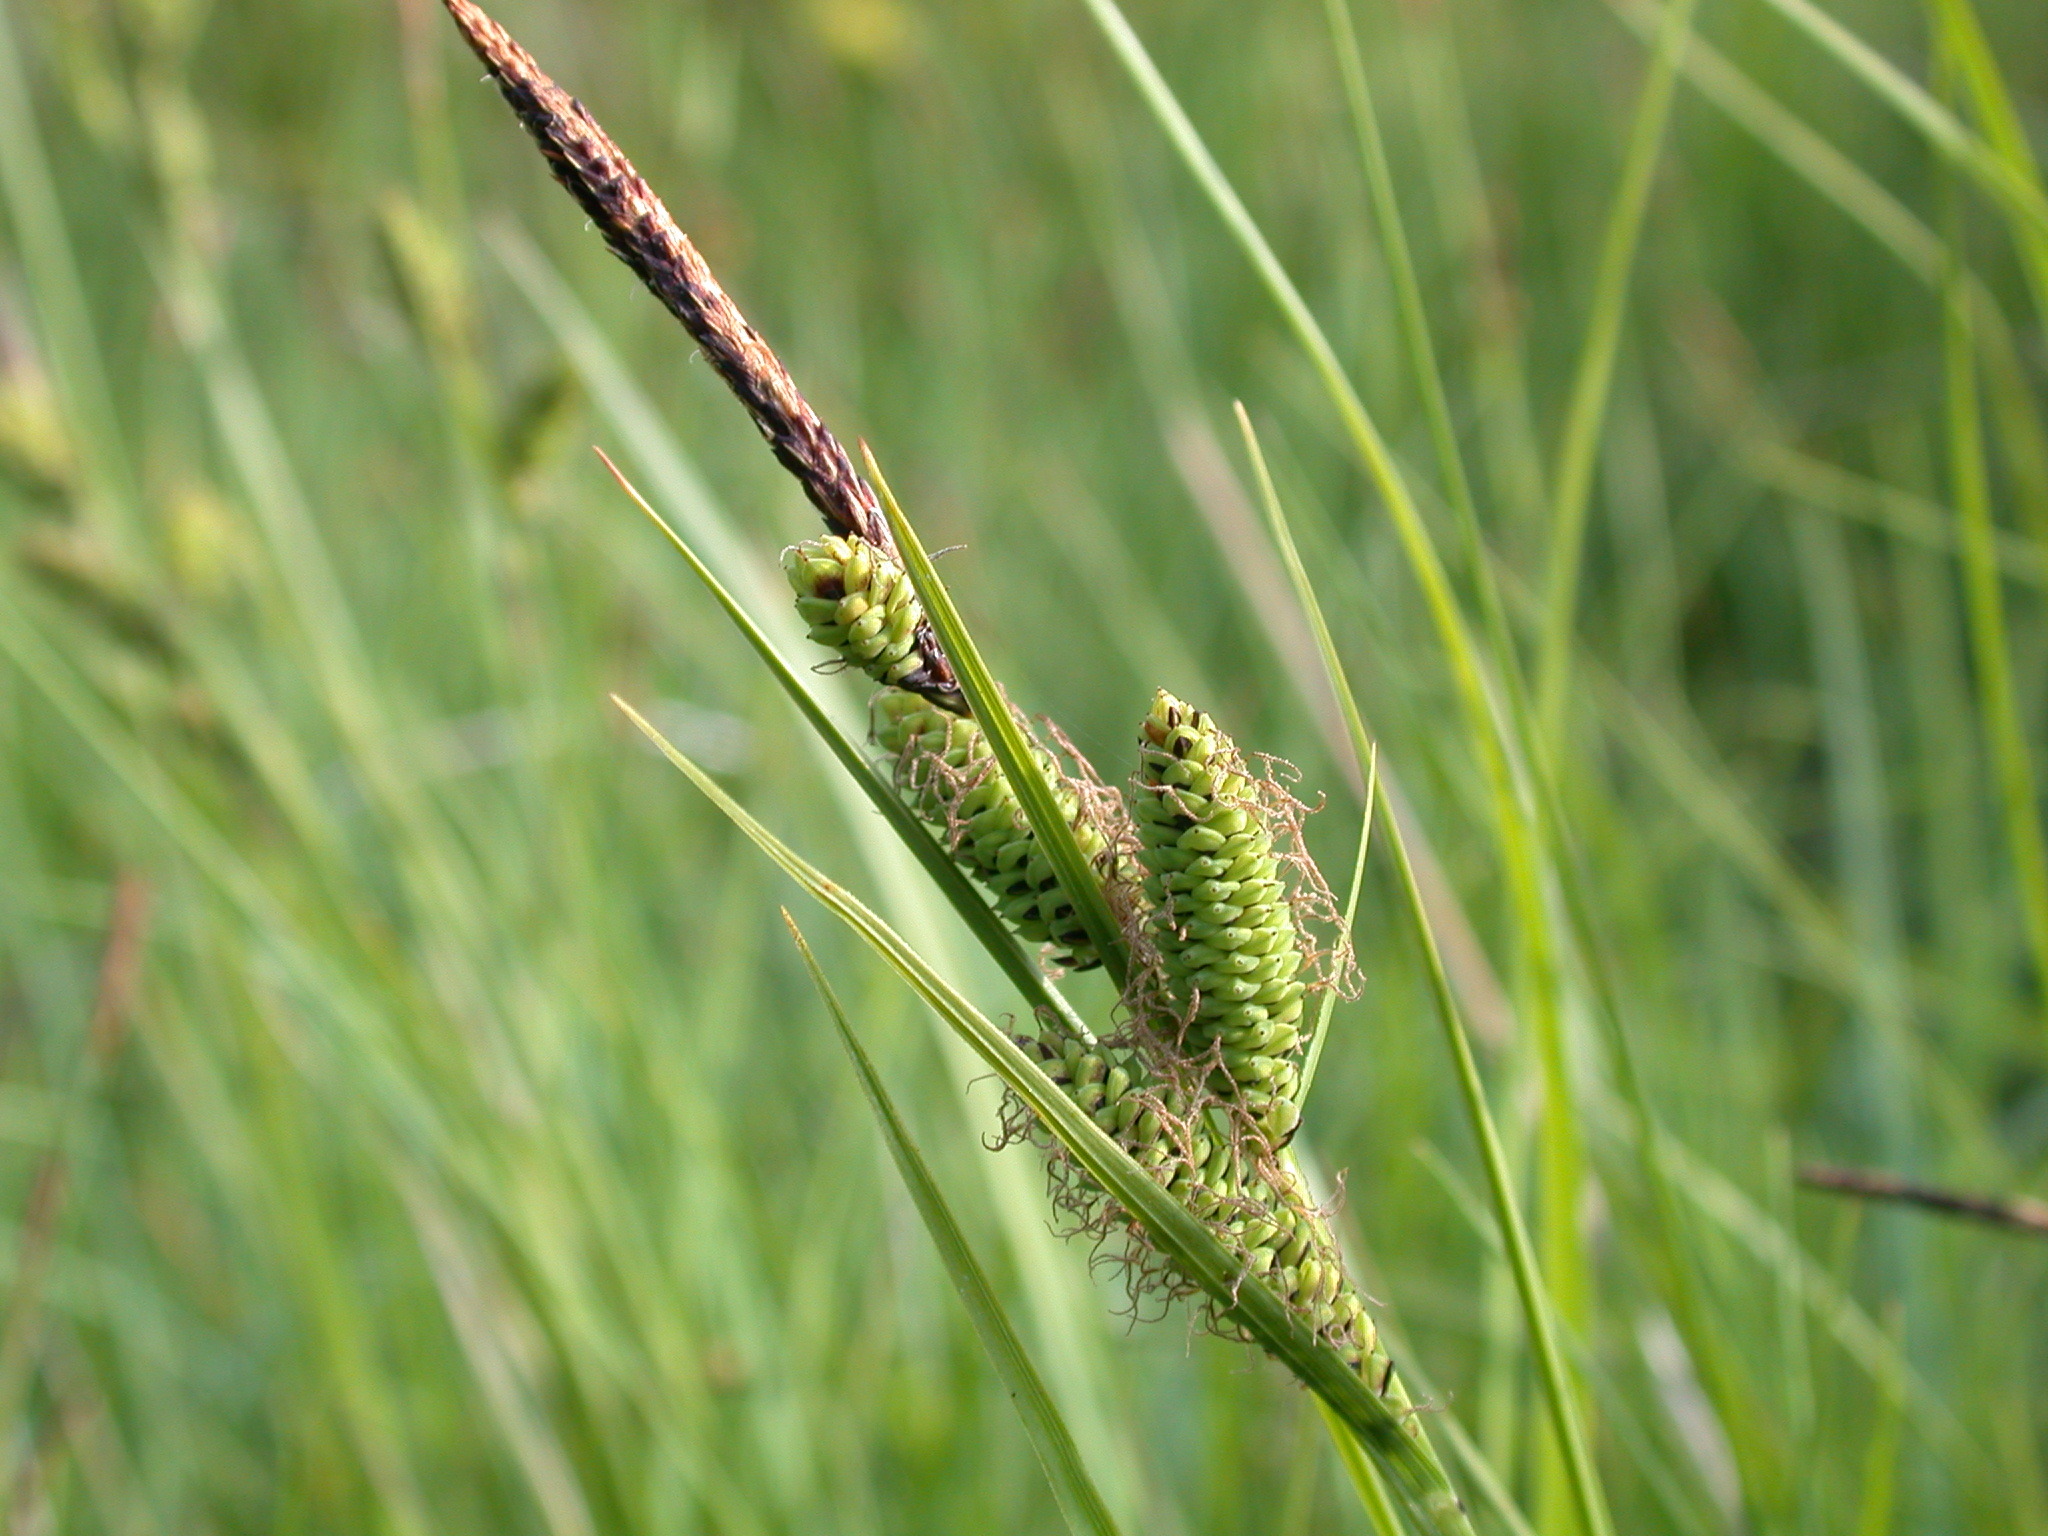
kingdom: Plantae
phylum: Tracheophyta
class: Liliopsida
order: Poales
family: Cyperaceae
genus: Carex
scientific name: Carex nigra
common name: Common sedge
